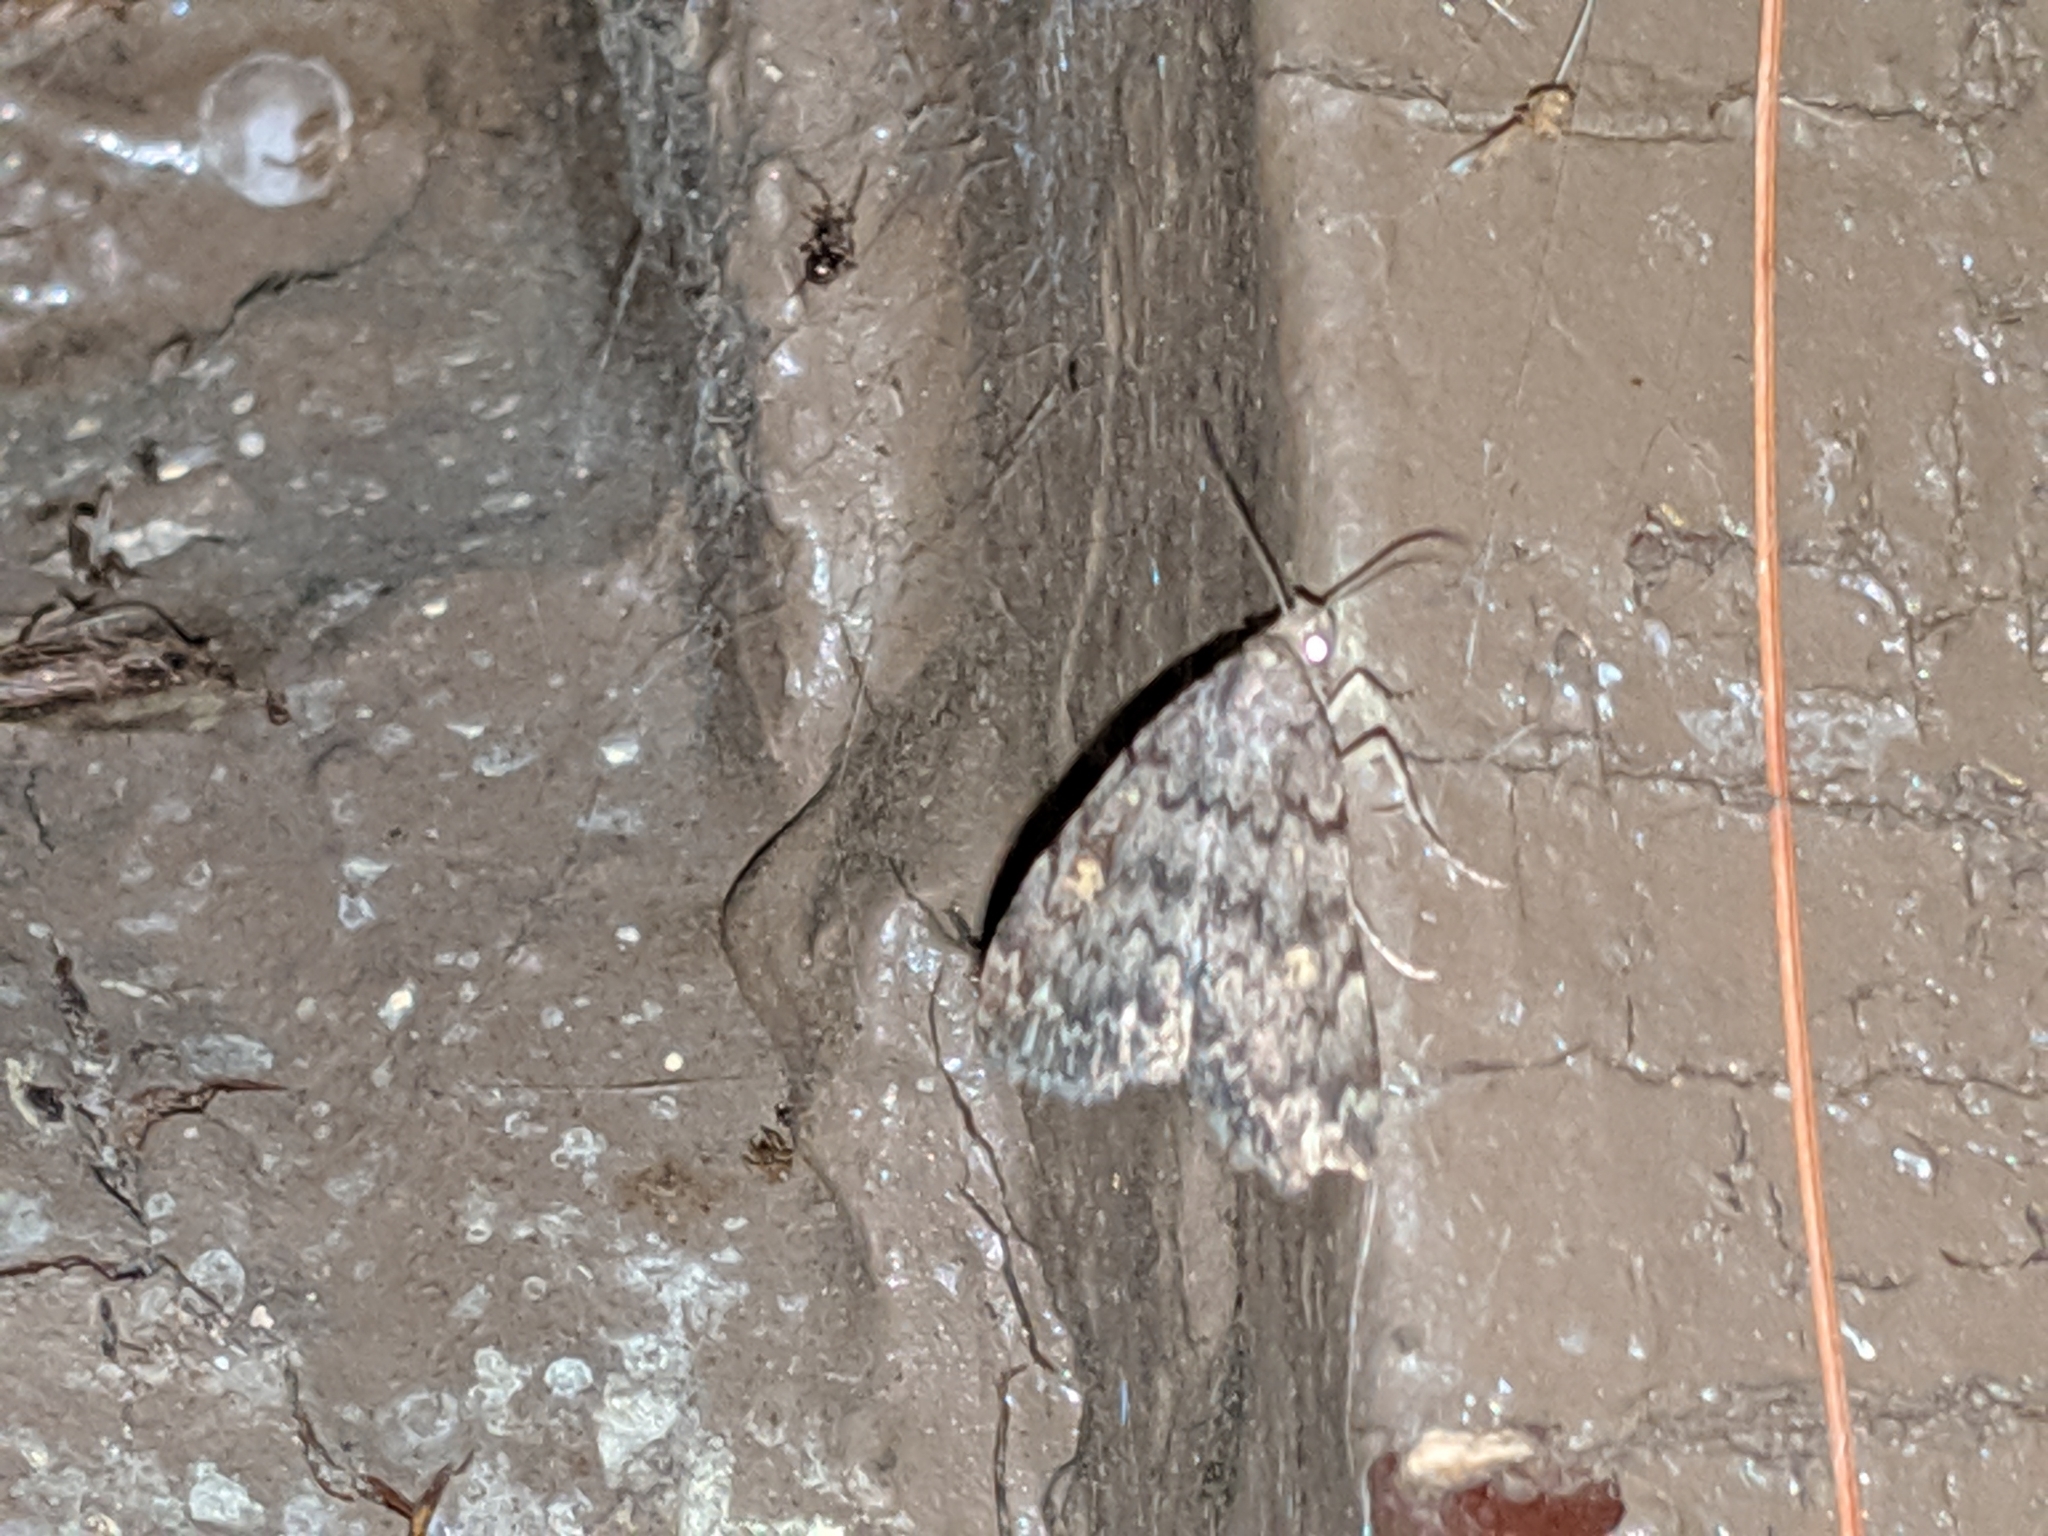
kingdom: Animalia
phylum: Arthropoda
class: Insecta
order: Lepidoptera
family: Erebidae
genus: Idia
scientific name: Idia aemula
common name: Common idia moth
